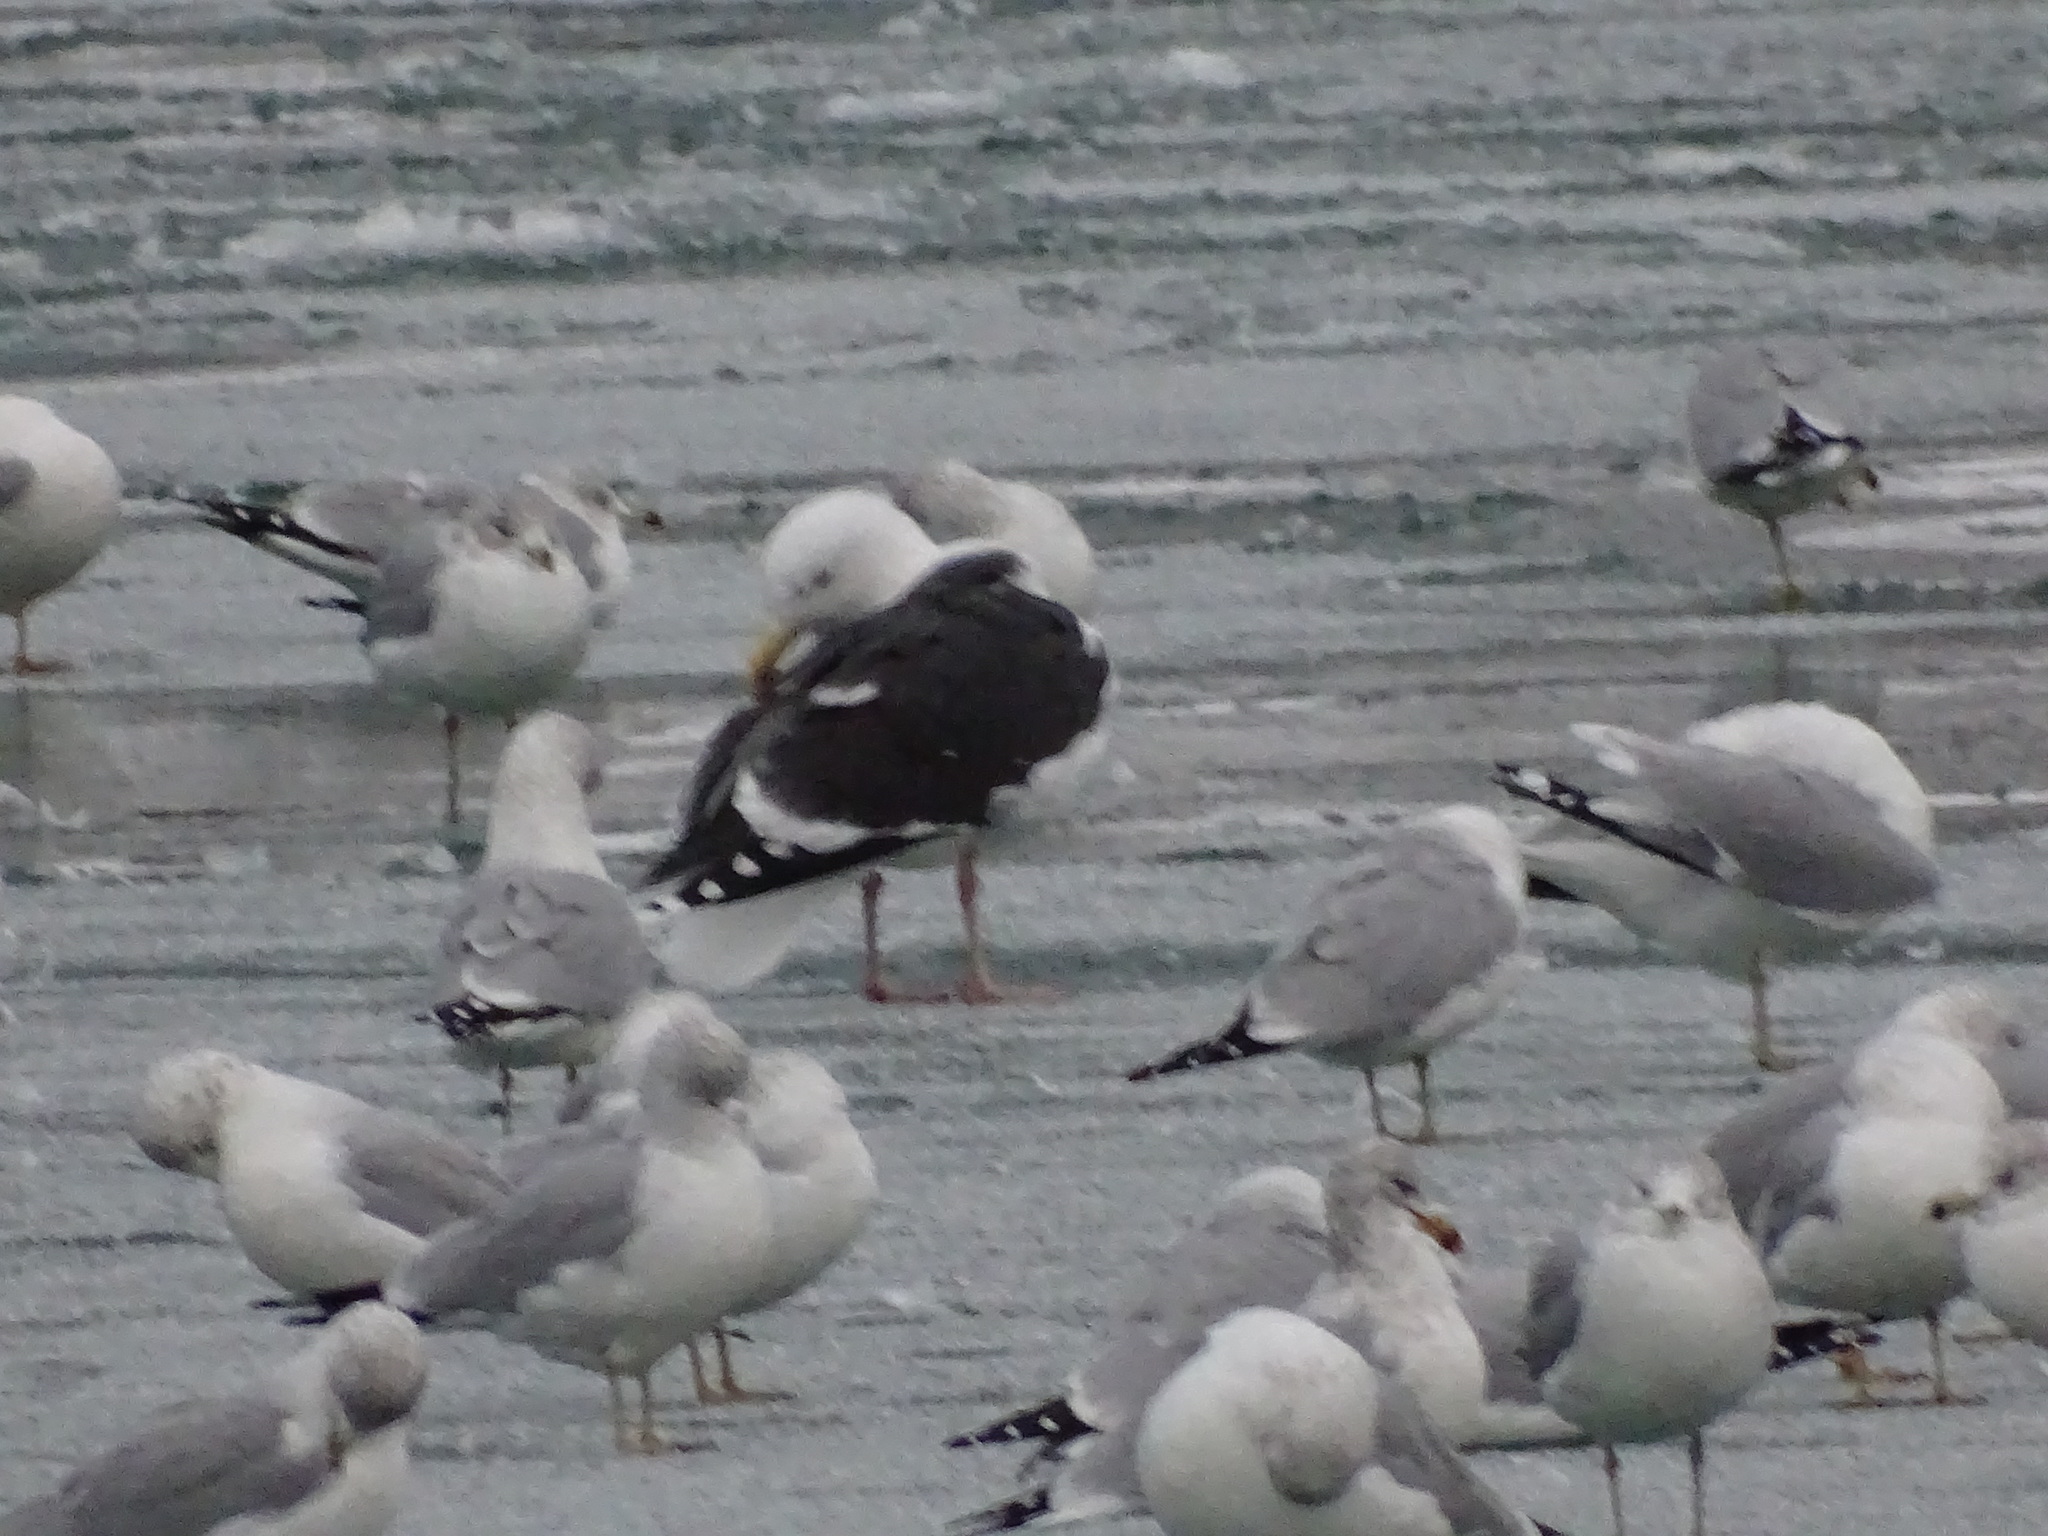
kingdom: Animalia
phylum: Chordata
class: Aves
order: Charadriiformes
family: Laridae
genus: Larus
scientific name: Larus marinus
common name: Great black-backed gull
